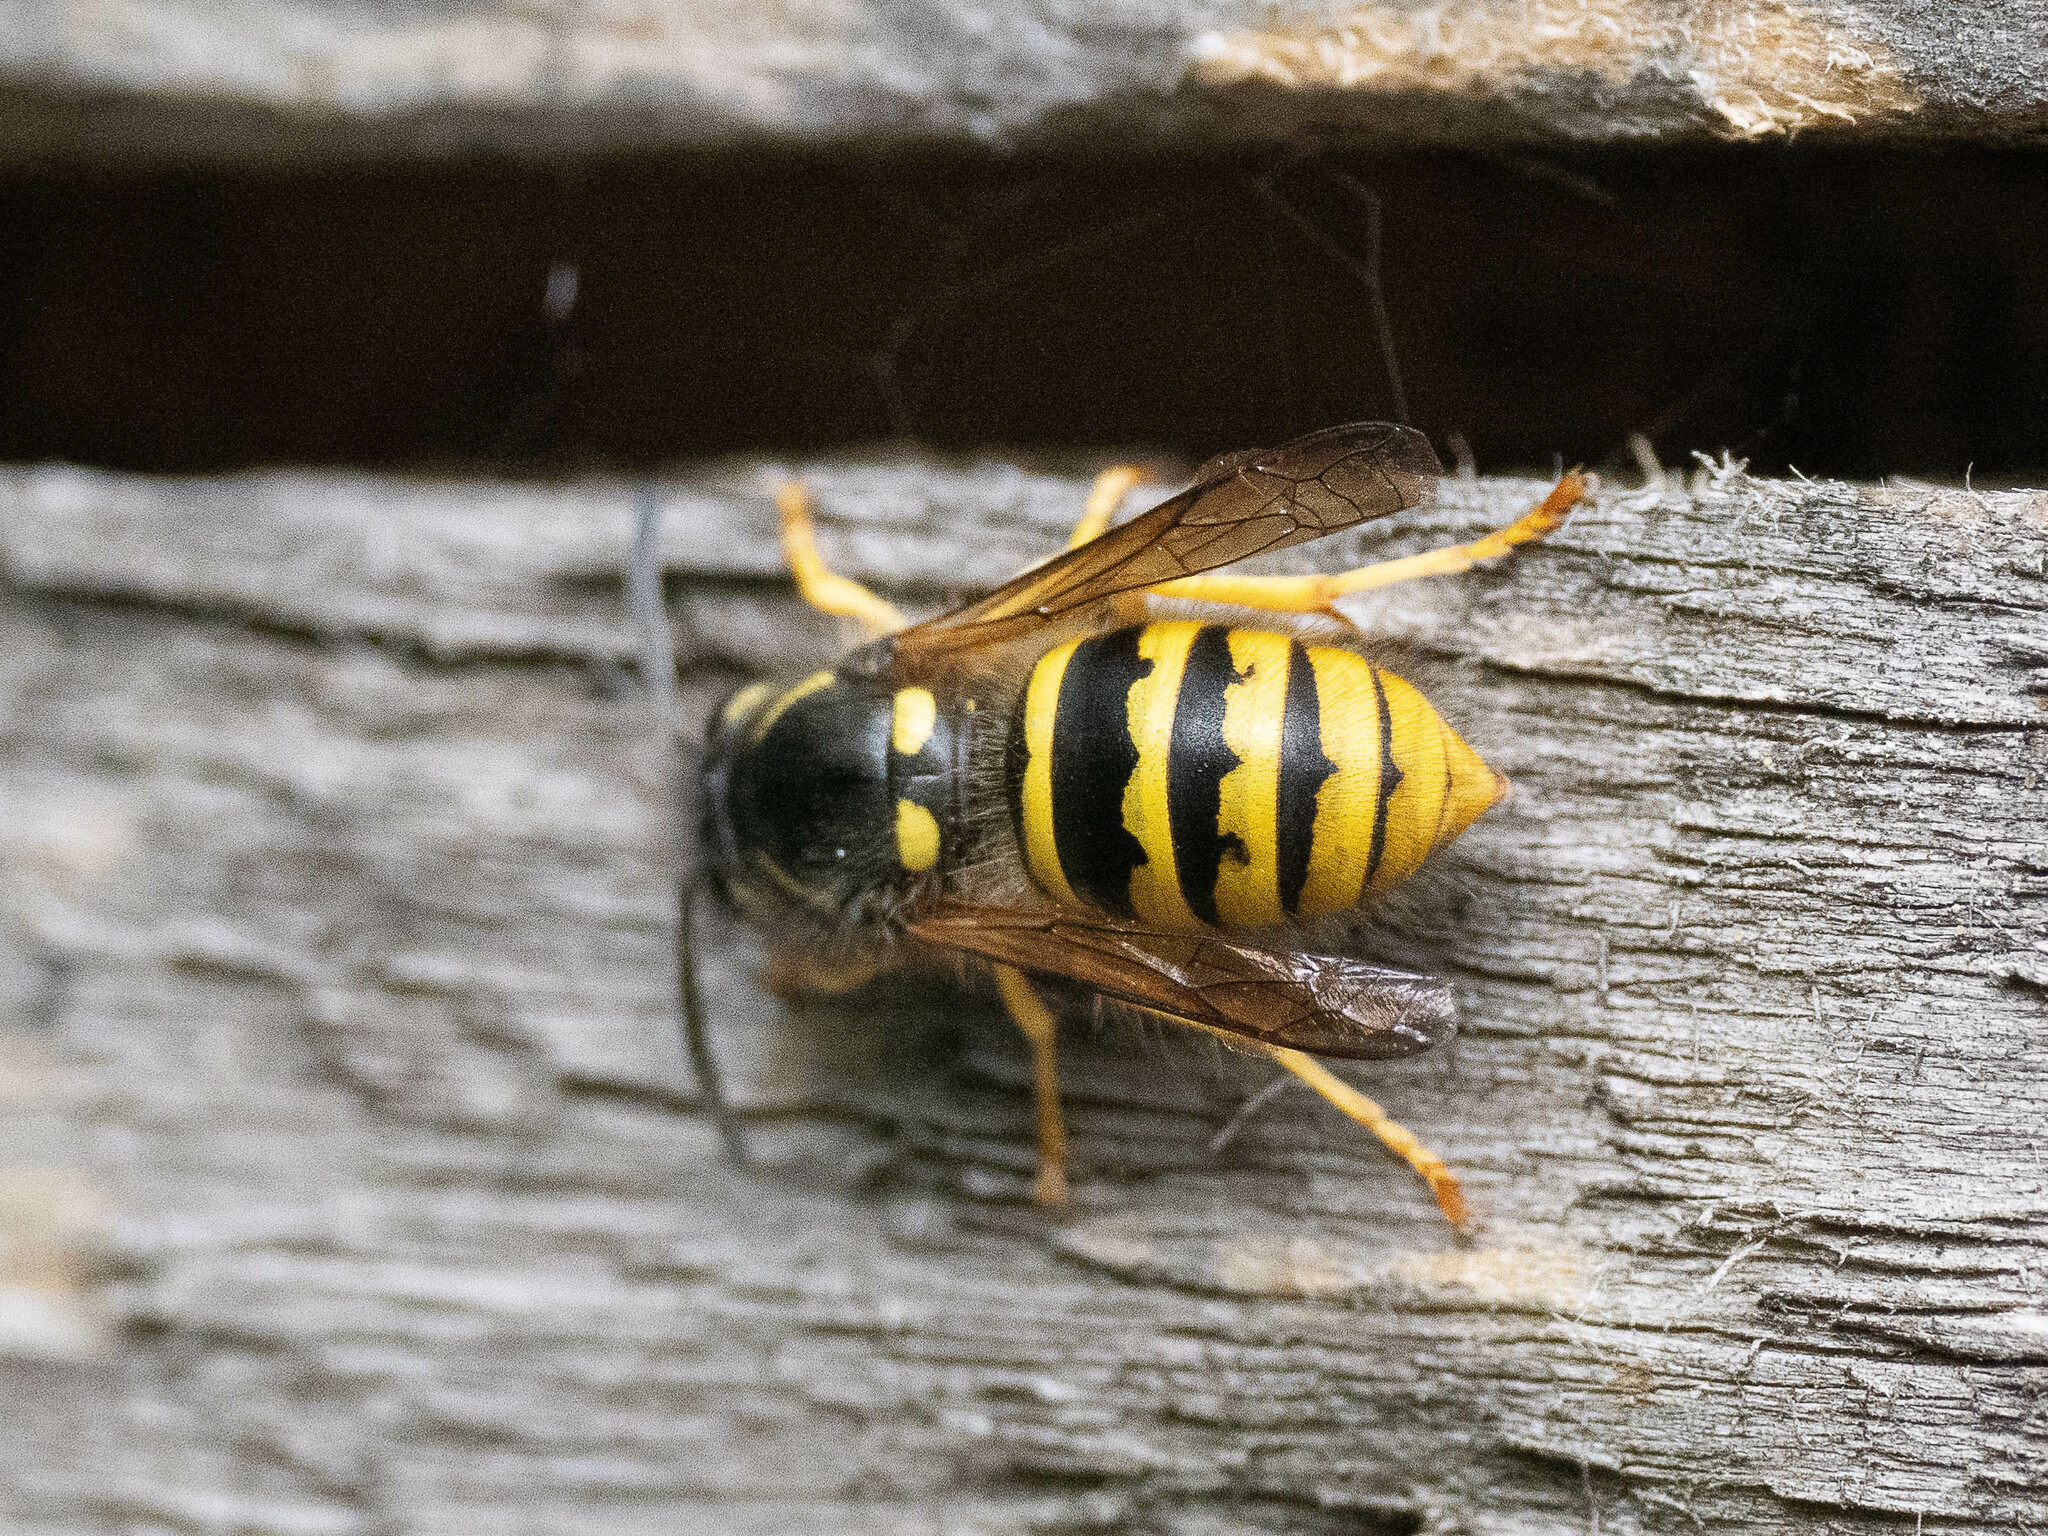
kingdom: Animalia
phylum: Arthropoda
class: Insecta
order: Hymenoptera
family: Vespidae
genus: Dolichovespula
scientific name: Dolichovespula sylvestris
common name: Tree wasp
